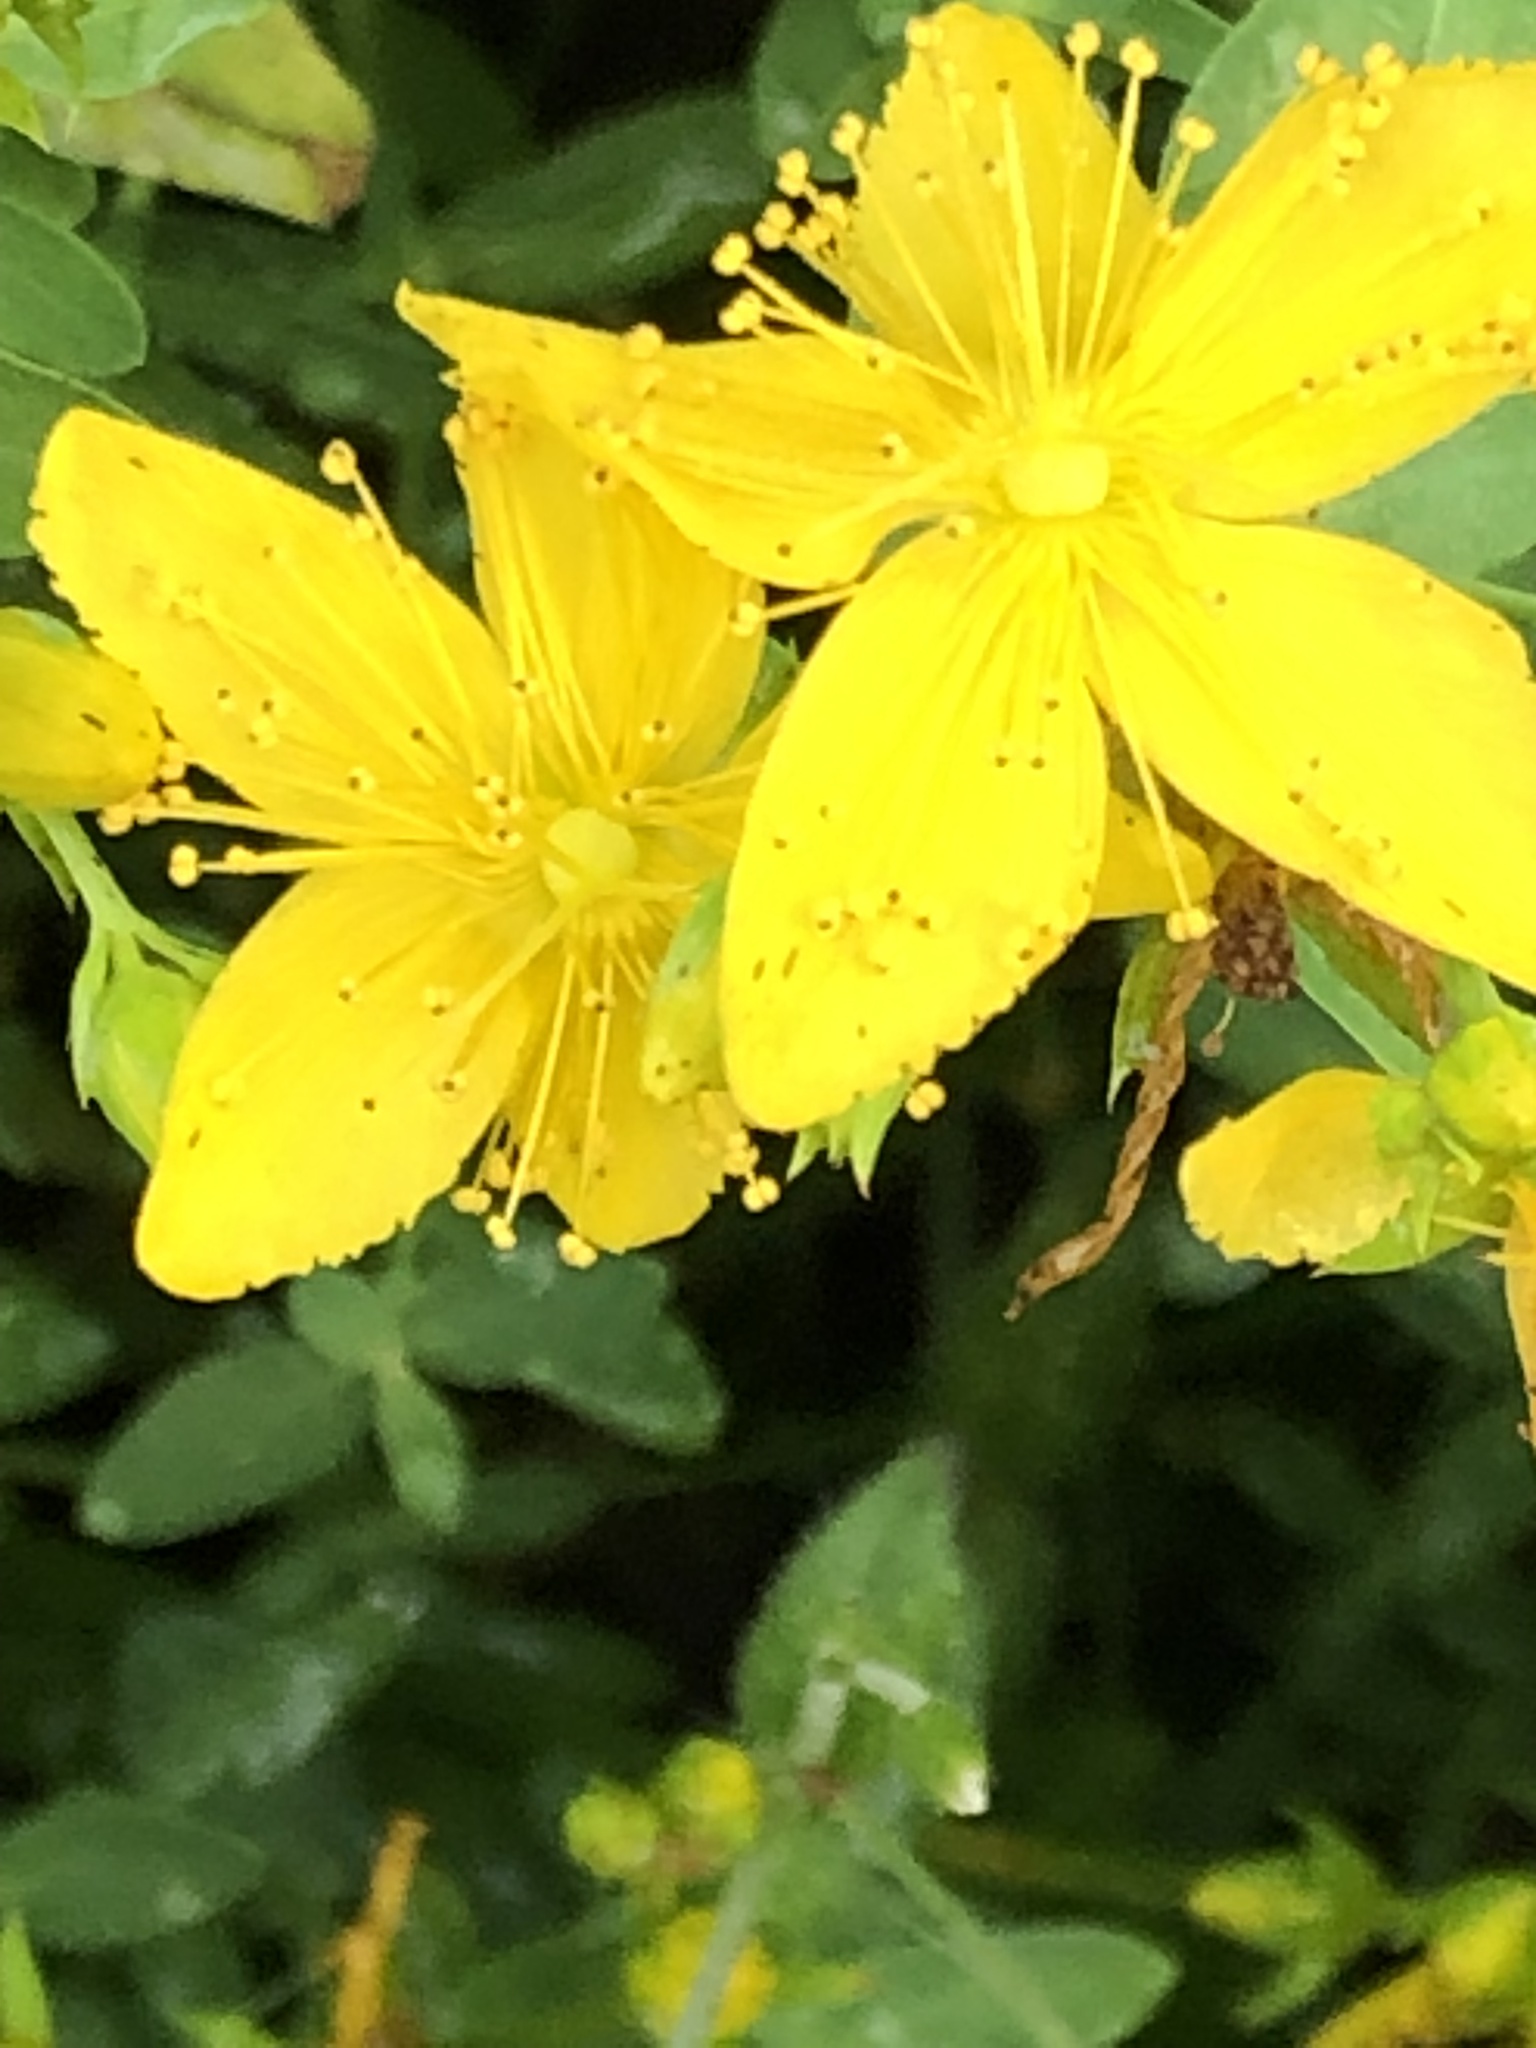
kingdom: Plantae
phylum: Tracheophyta
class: Magnoliopsida
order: Malpighiales
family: Hypericaceae
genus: Hypericum
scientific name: Hypericum perforatum
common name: Common st. johnswort
